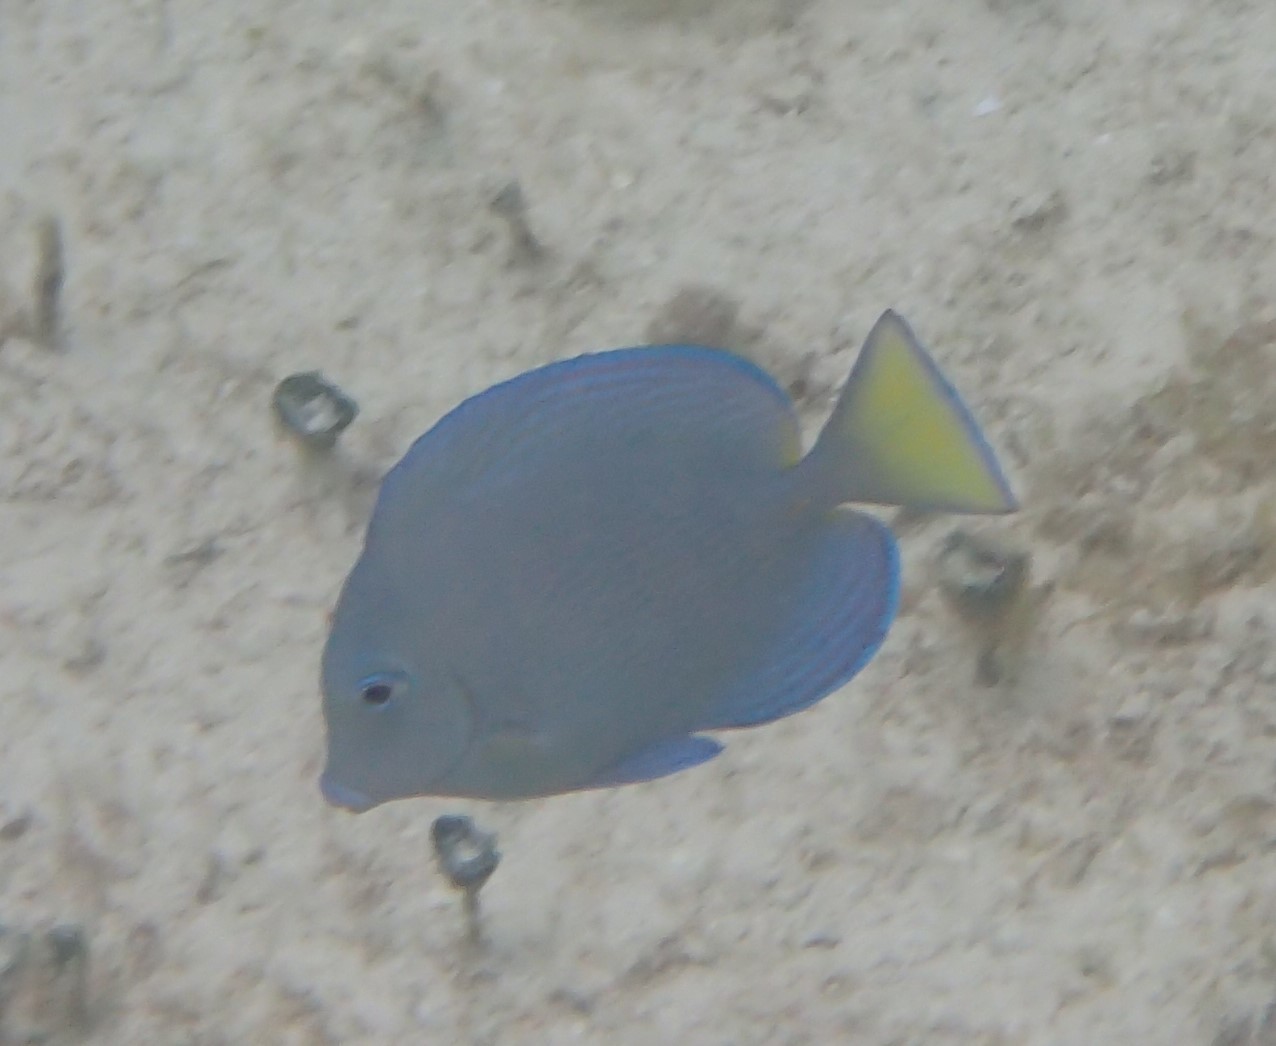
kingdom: Animalia
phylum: Chordata
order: Perciformes
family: Acanthuridae
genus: Acanthurus
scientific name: Acanthurus coeruleus
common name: Blue tang
